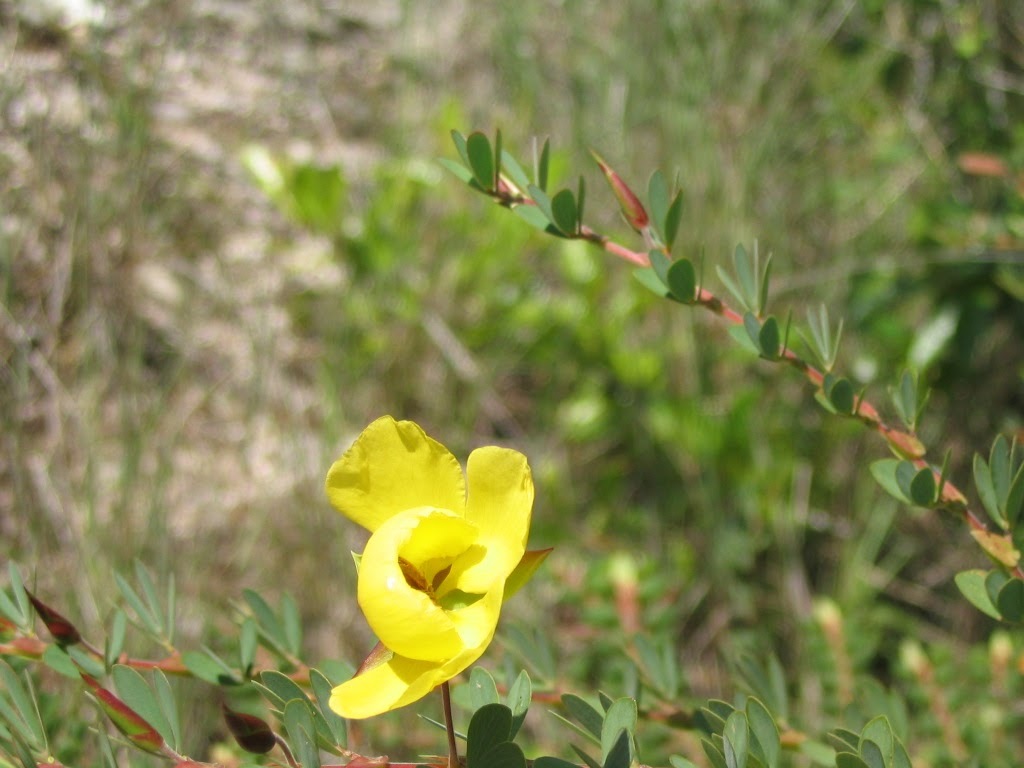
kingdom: Plantae
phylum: Tracheophyta
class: Magnoliopsida
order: Fabales
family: Fabaceae
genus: Chamaecrista
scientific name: Chamaecrista desvauxii
